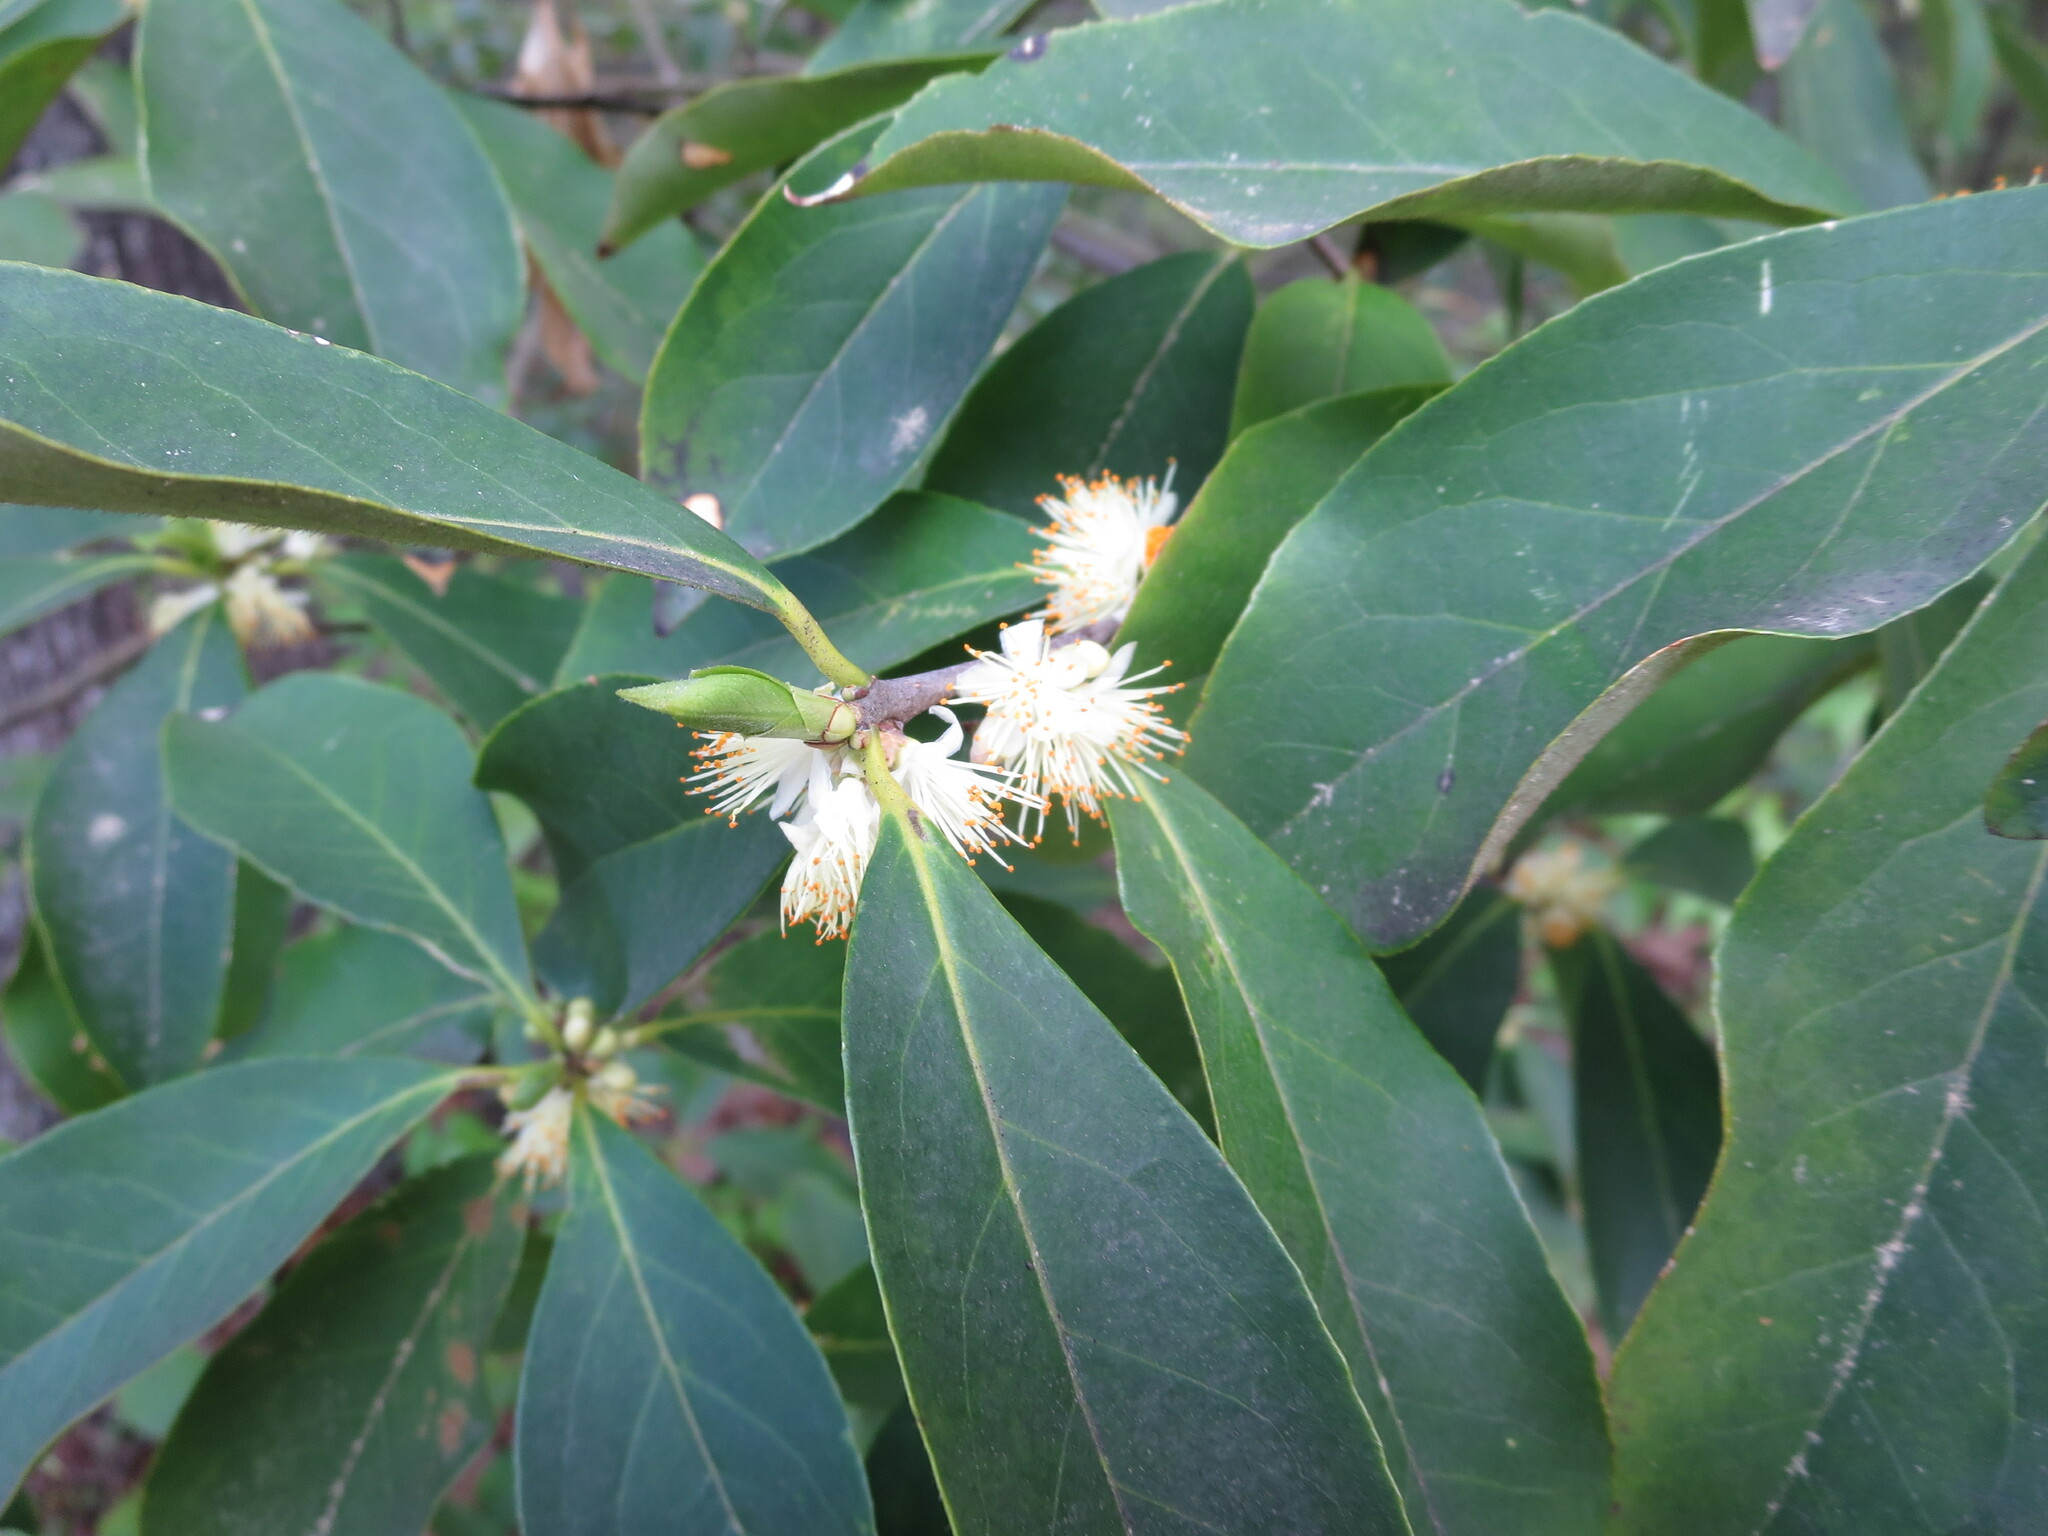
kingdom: Plantae
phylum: Tracheophyta
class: Magnoliopsida
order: Ericales
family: Symplocaceae
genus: Symplocos
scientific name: Symplocos tinctoria
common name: Horse-sugar
